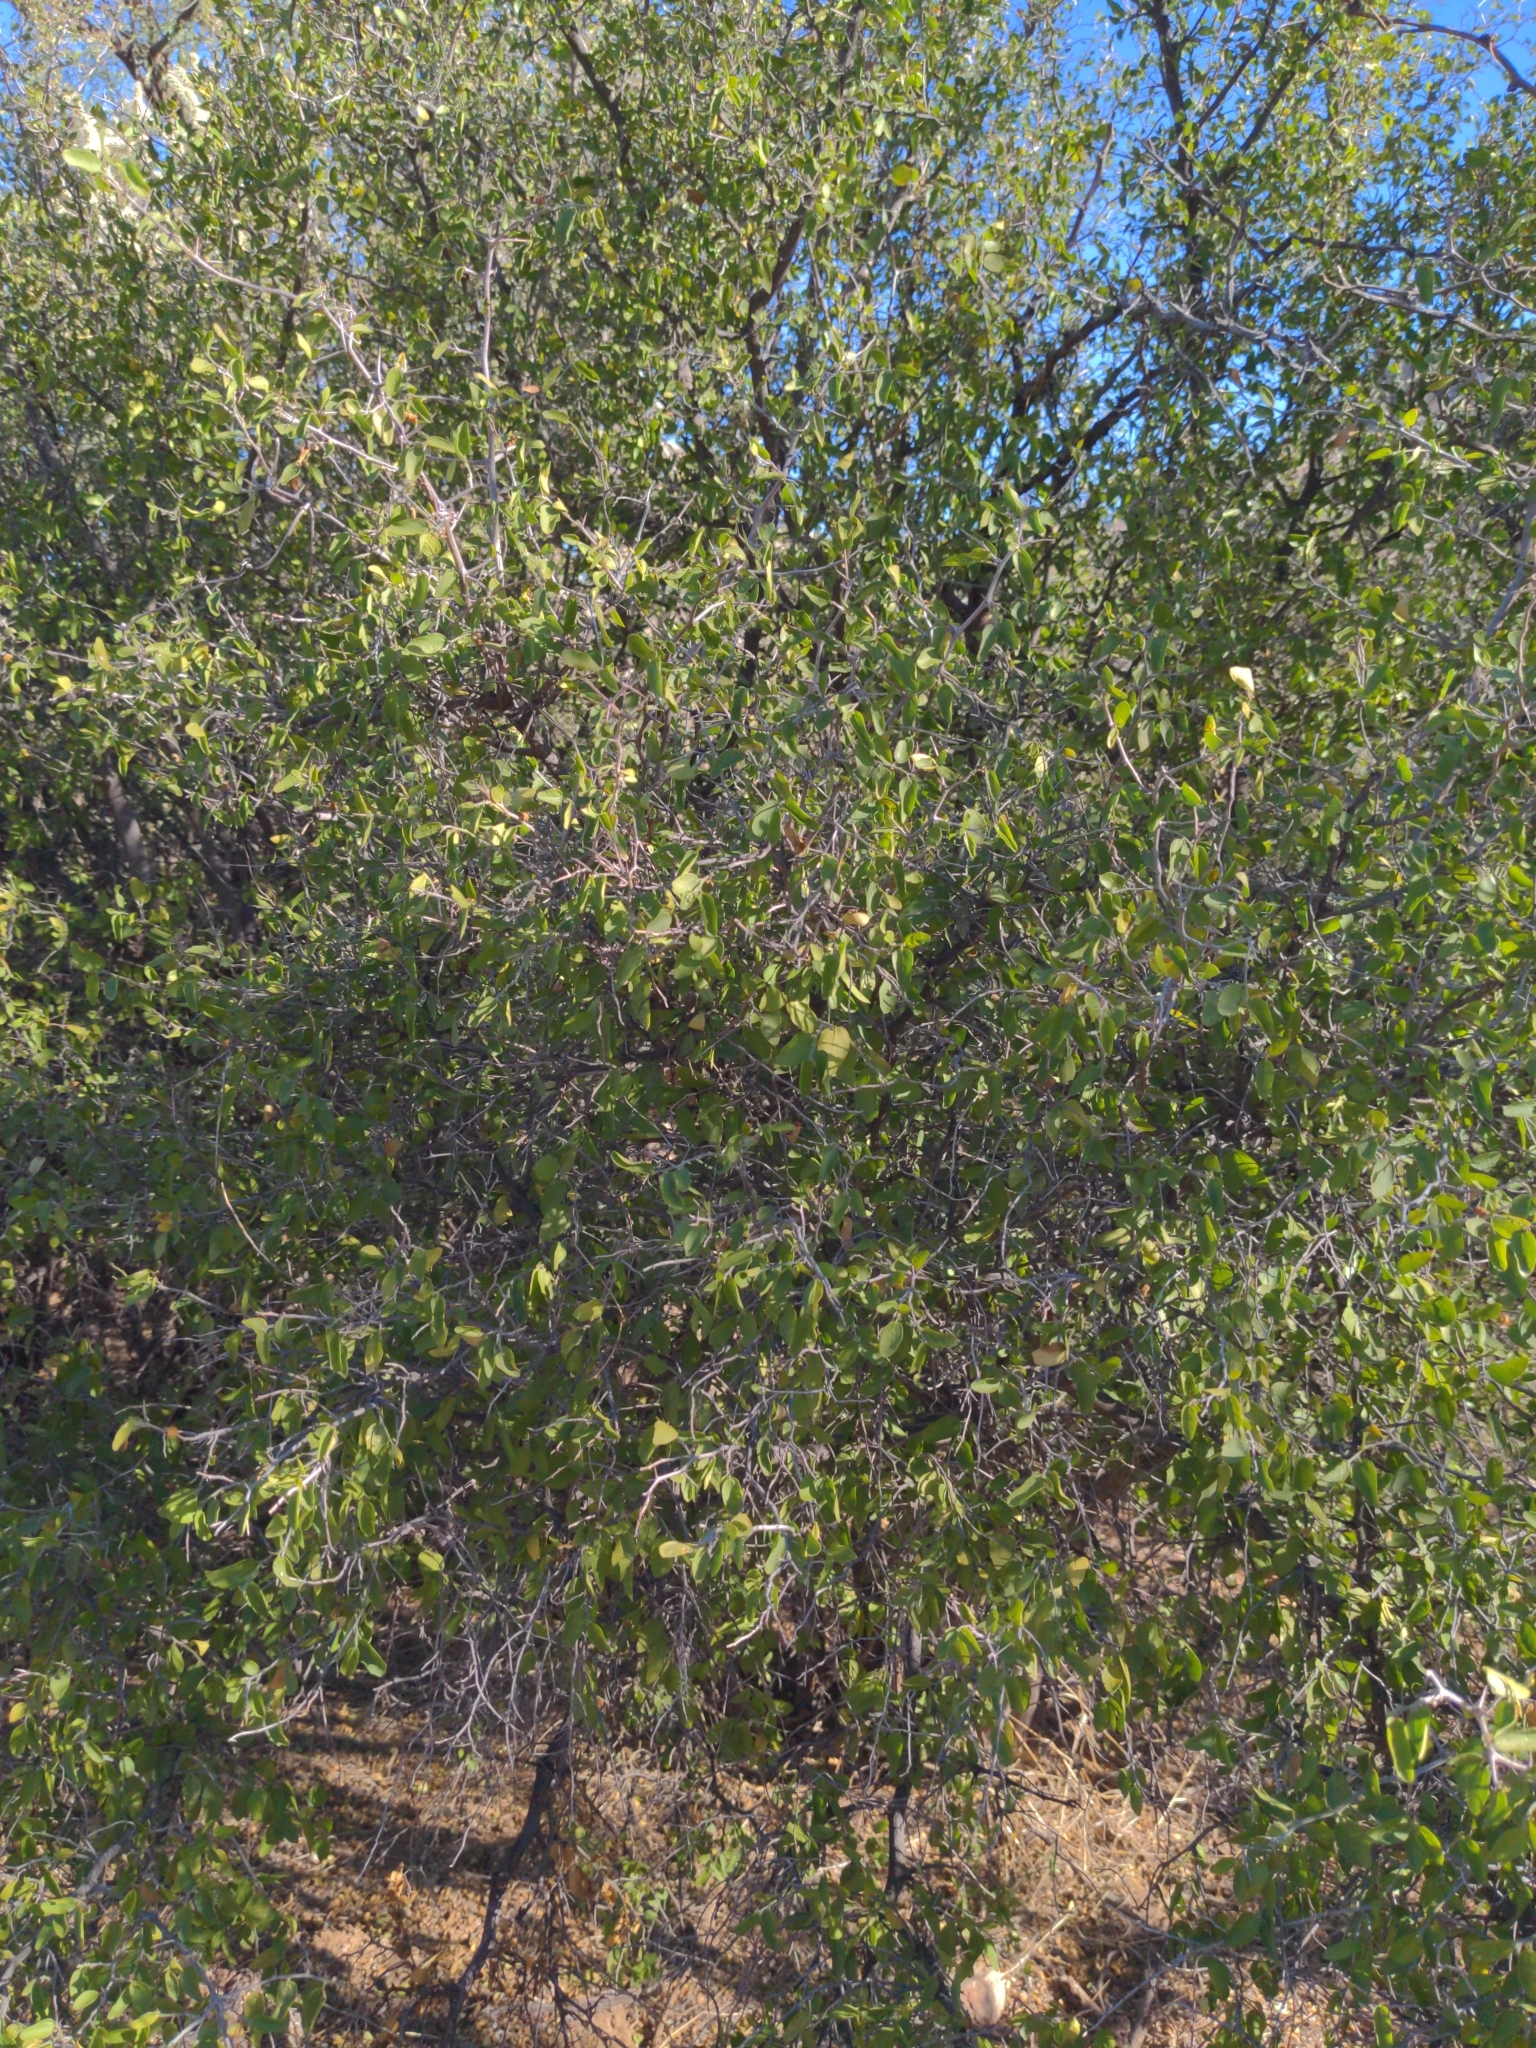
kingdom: Plantae
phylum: Tracheophyta
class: Magnoliopsida
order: Rosales
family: Cannabaceae
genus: Celtis
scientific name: Celtis pallida
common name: Desert hackberry
